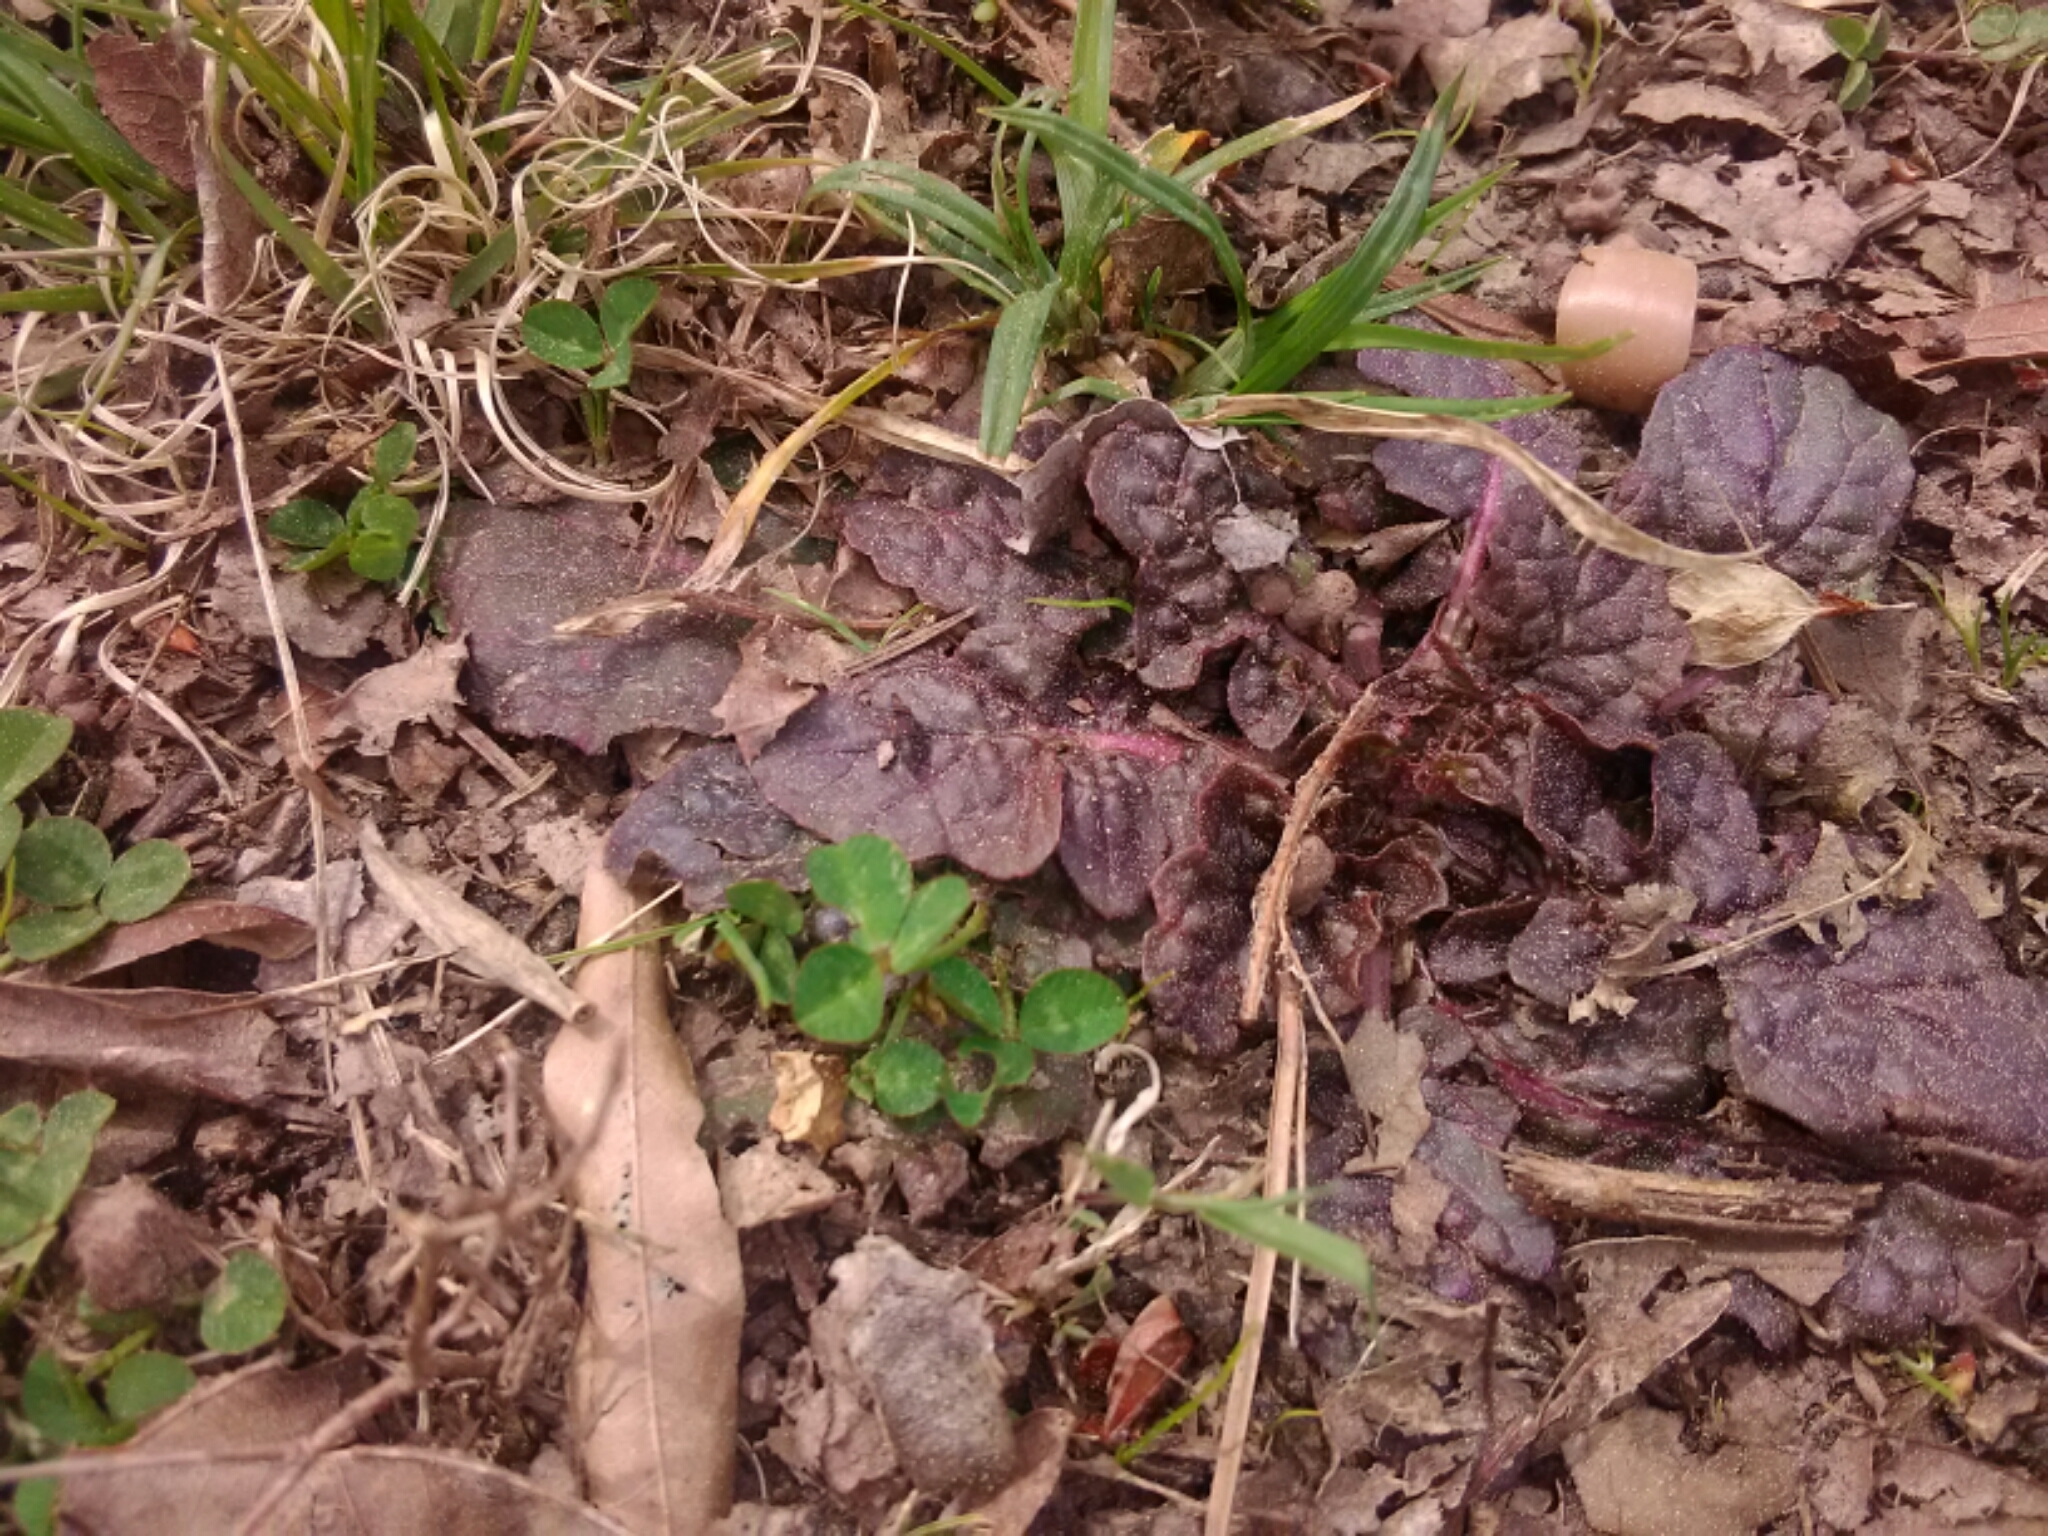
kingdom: Plantae
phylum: Tracheophyta
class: Magnoliopsida
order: Lamiales
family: Lamiaceae
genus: Salvia
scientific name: Salvia lyrata
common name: Cancerweed
